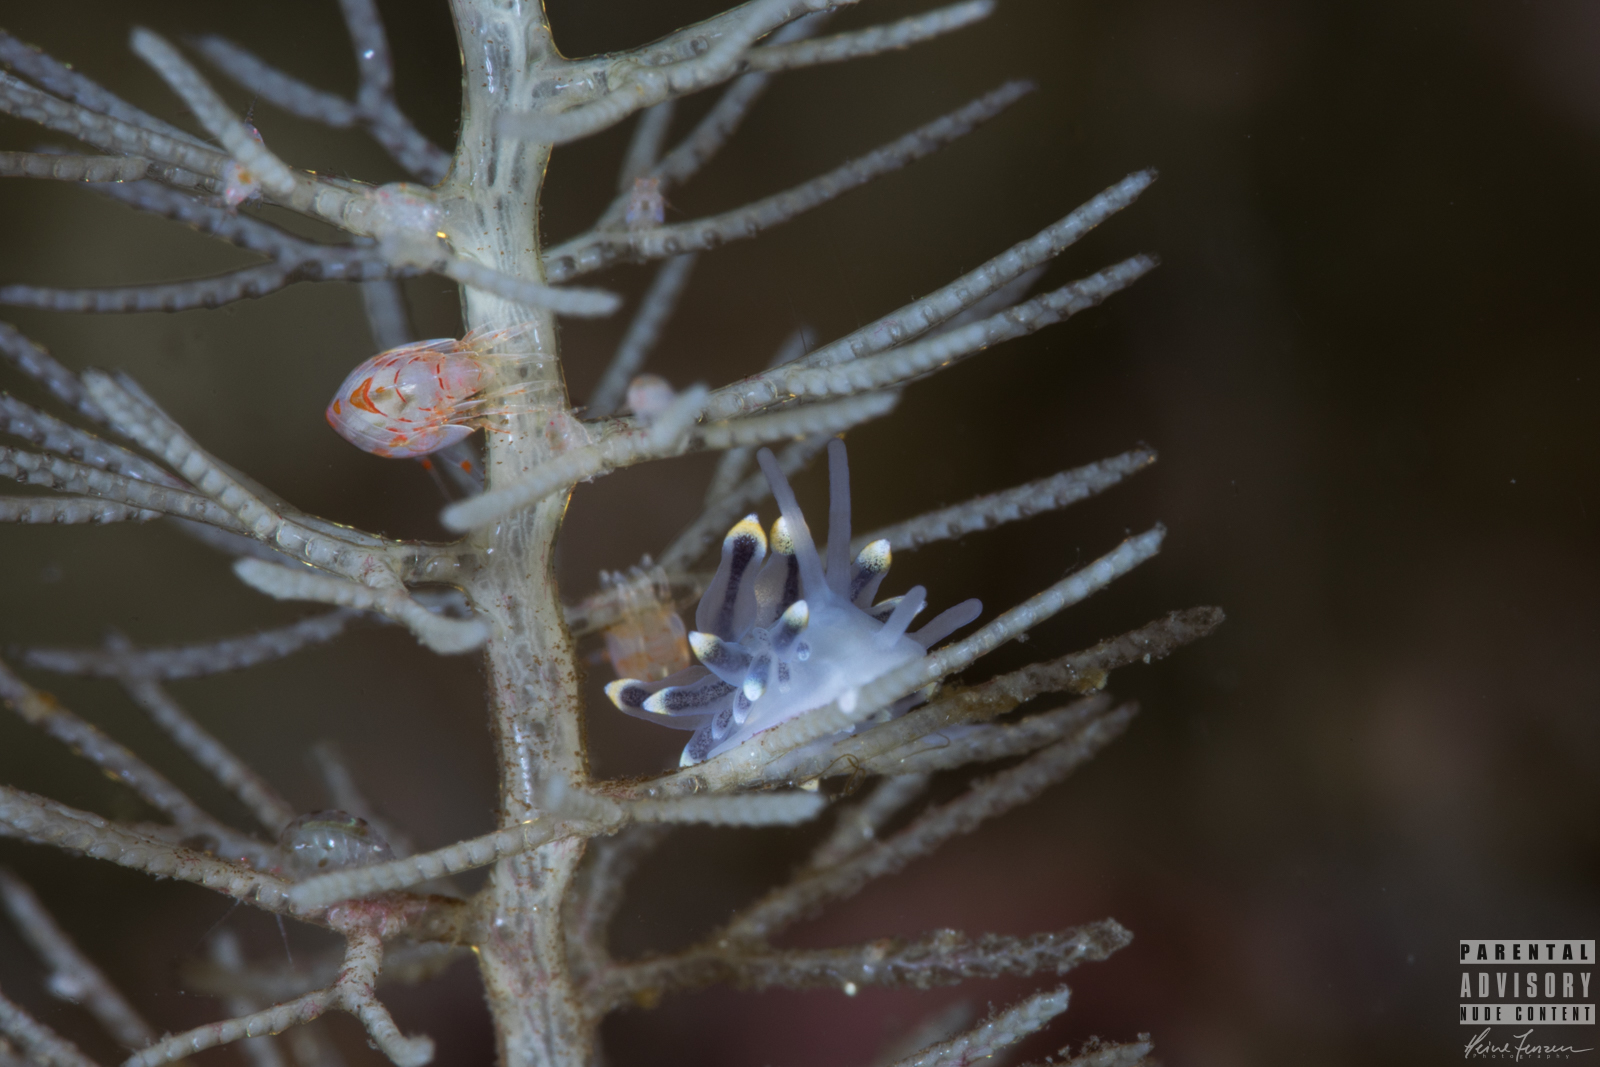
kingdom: Animalia
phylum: Mollusca
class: Gastropoda
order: Nudibranchia
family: Eubranchidae
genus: Eubranchus
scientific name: Eubranchus tricolor
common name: Painted balloon aeolis
